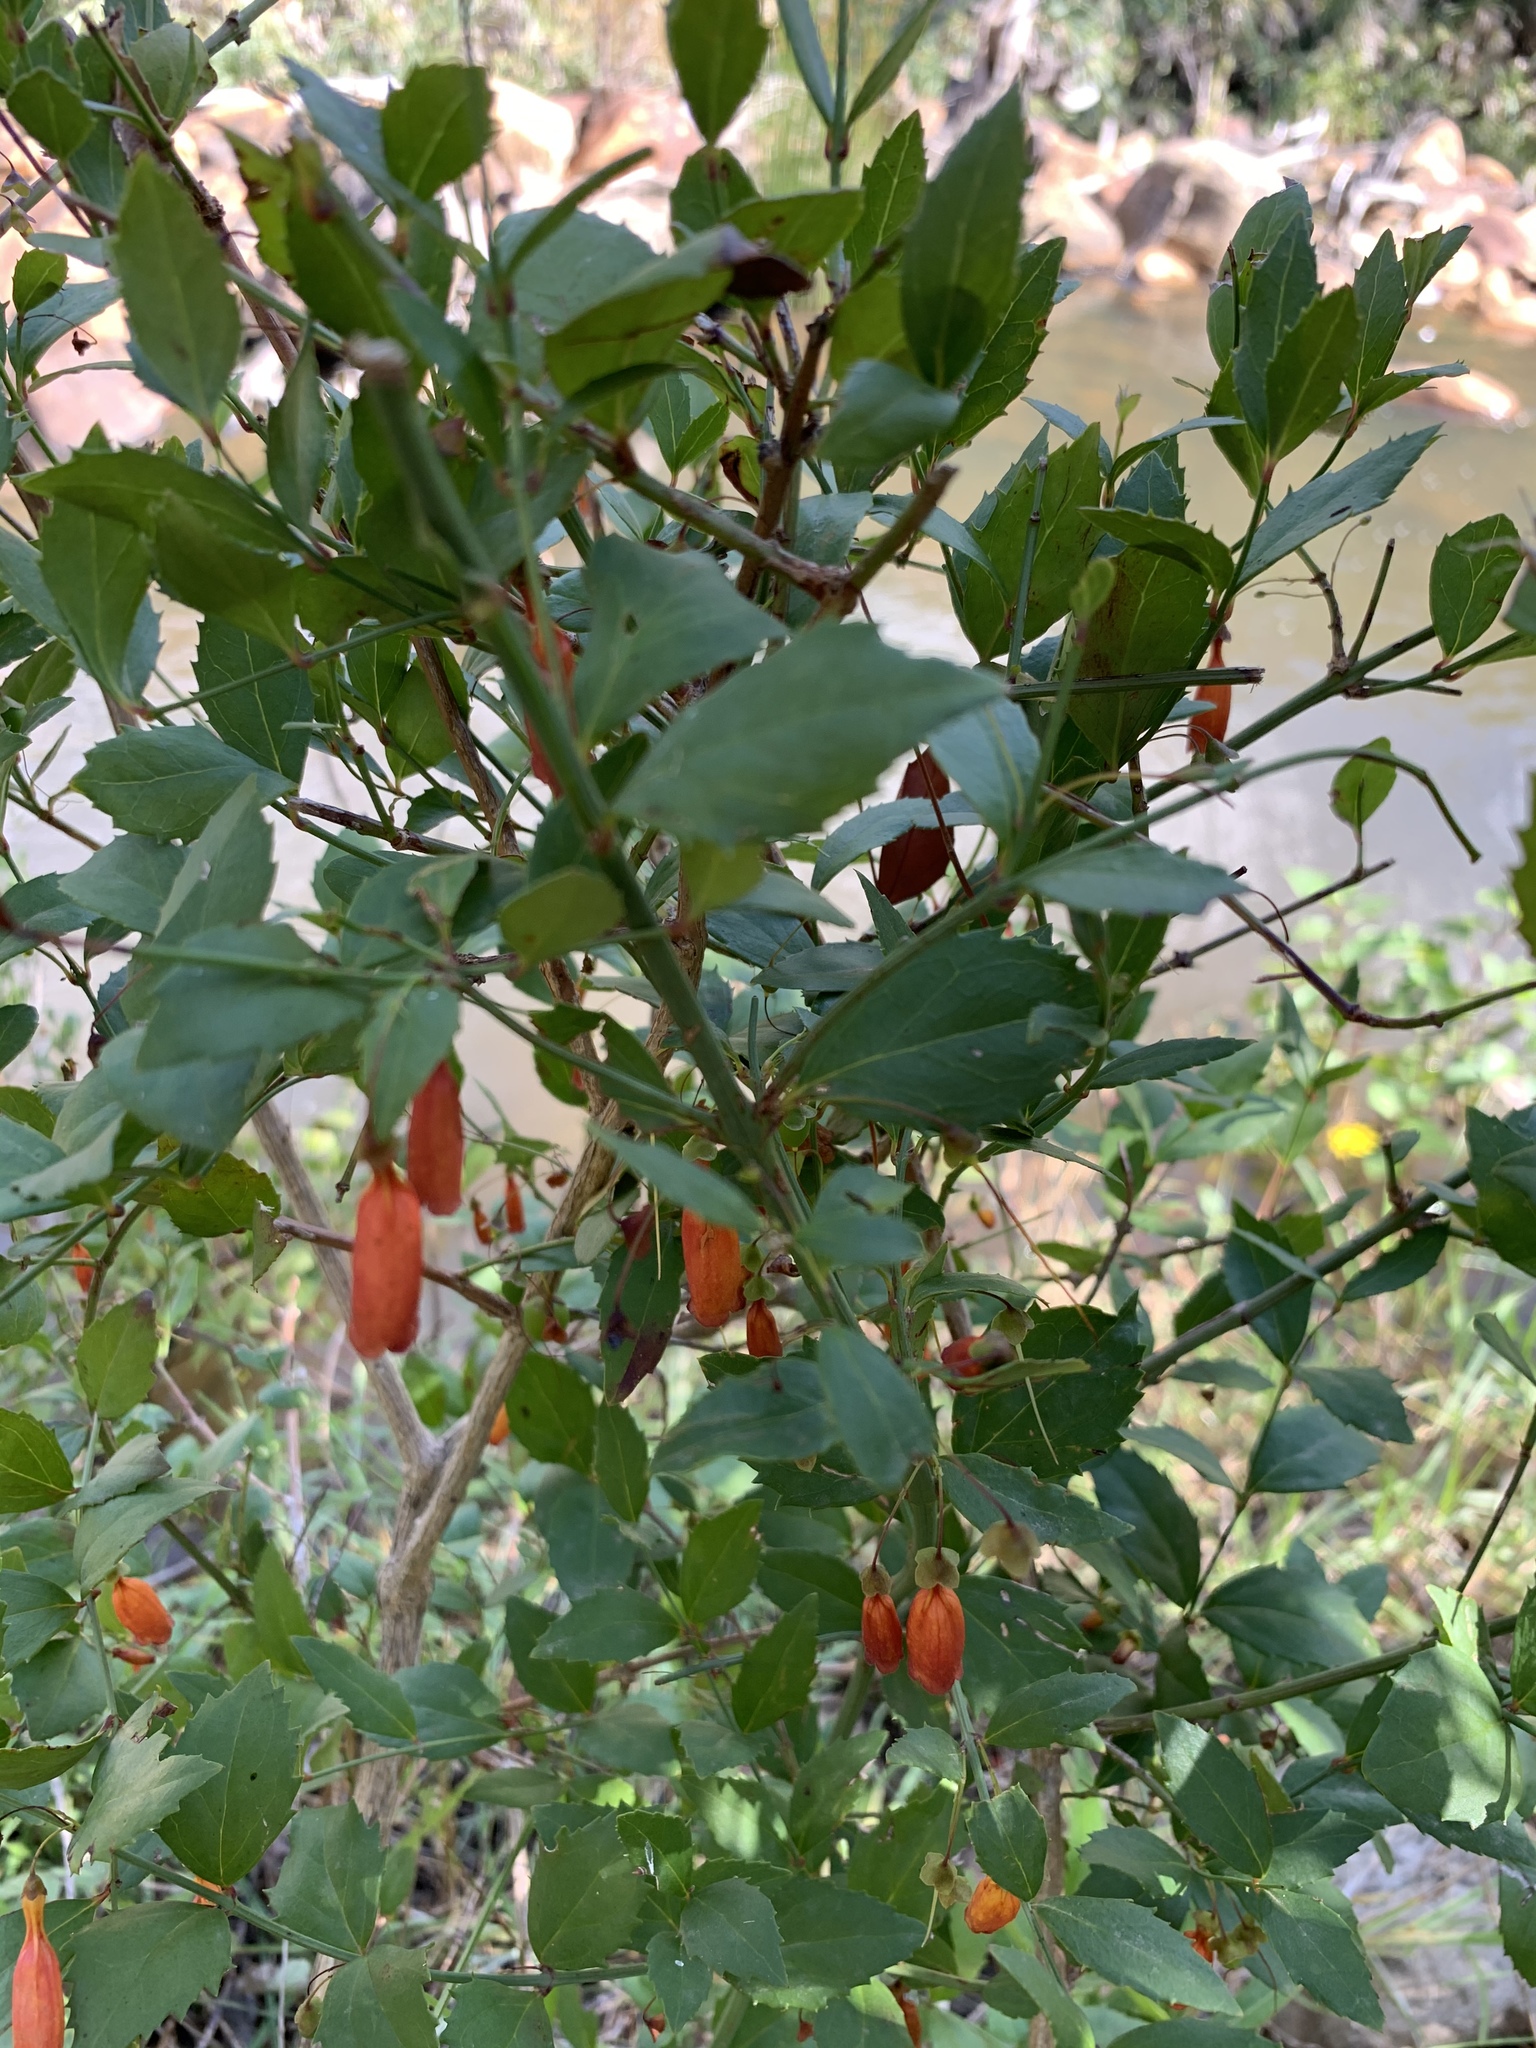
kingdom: Plantae
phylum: Tracheophyta
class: Magnoliopsida
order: Lamiales
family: Stilbaceae
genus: Halleria
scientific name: Halleria elliptica
